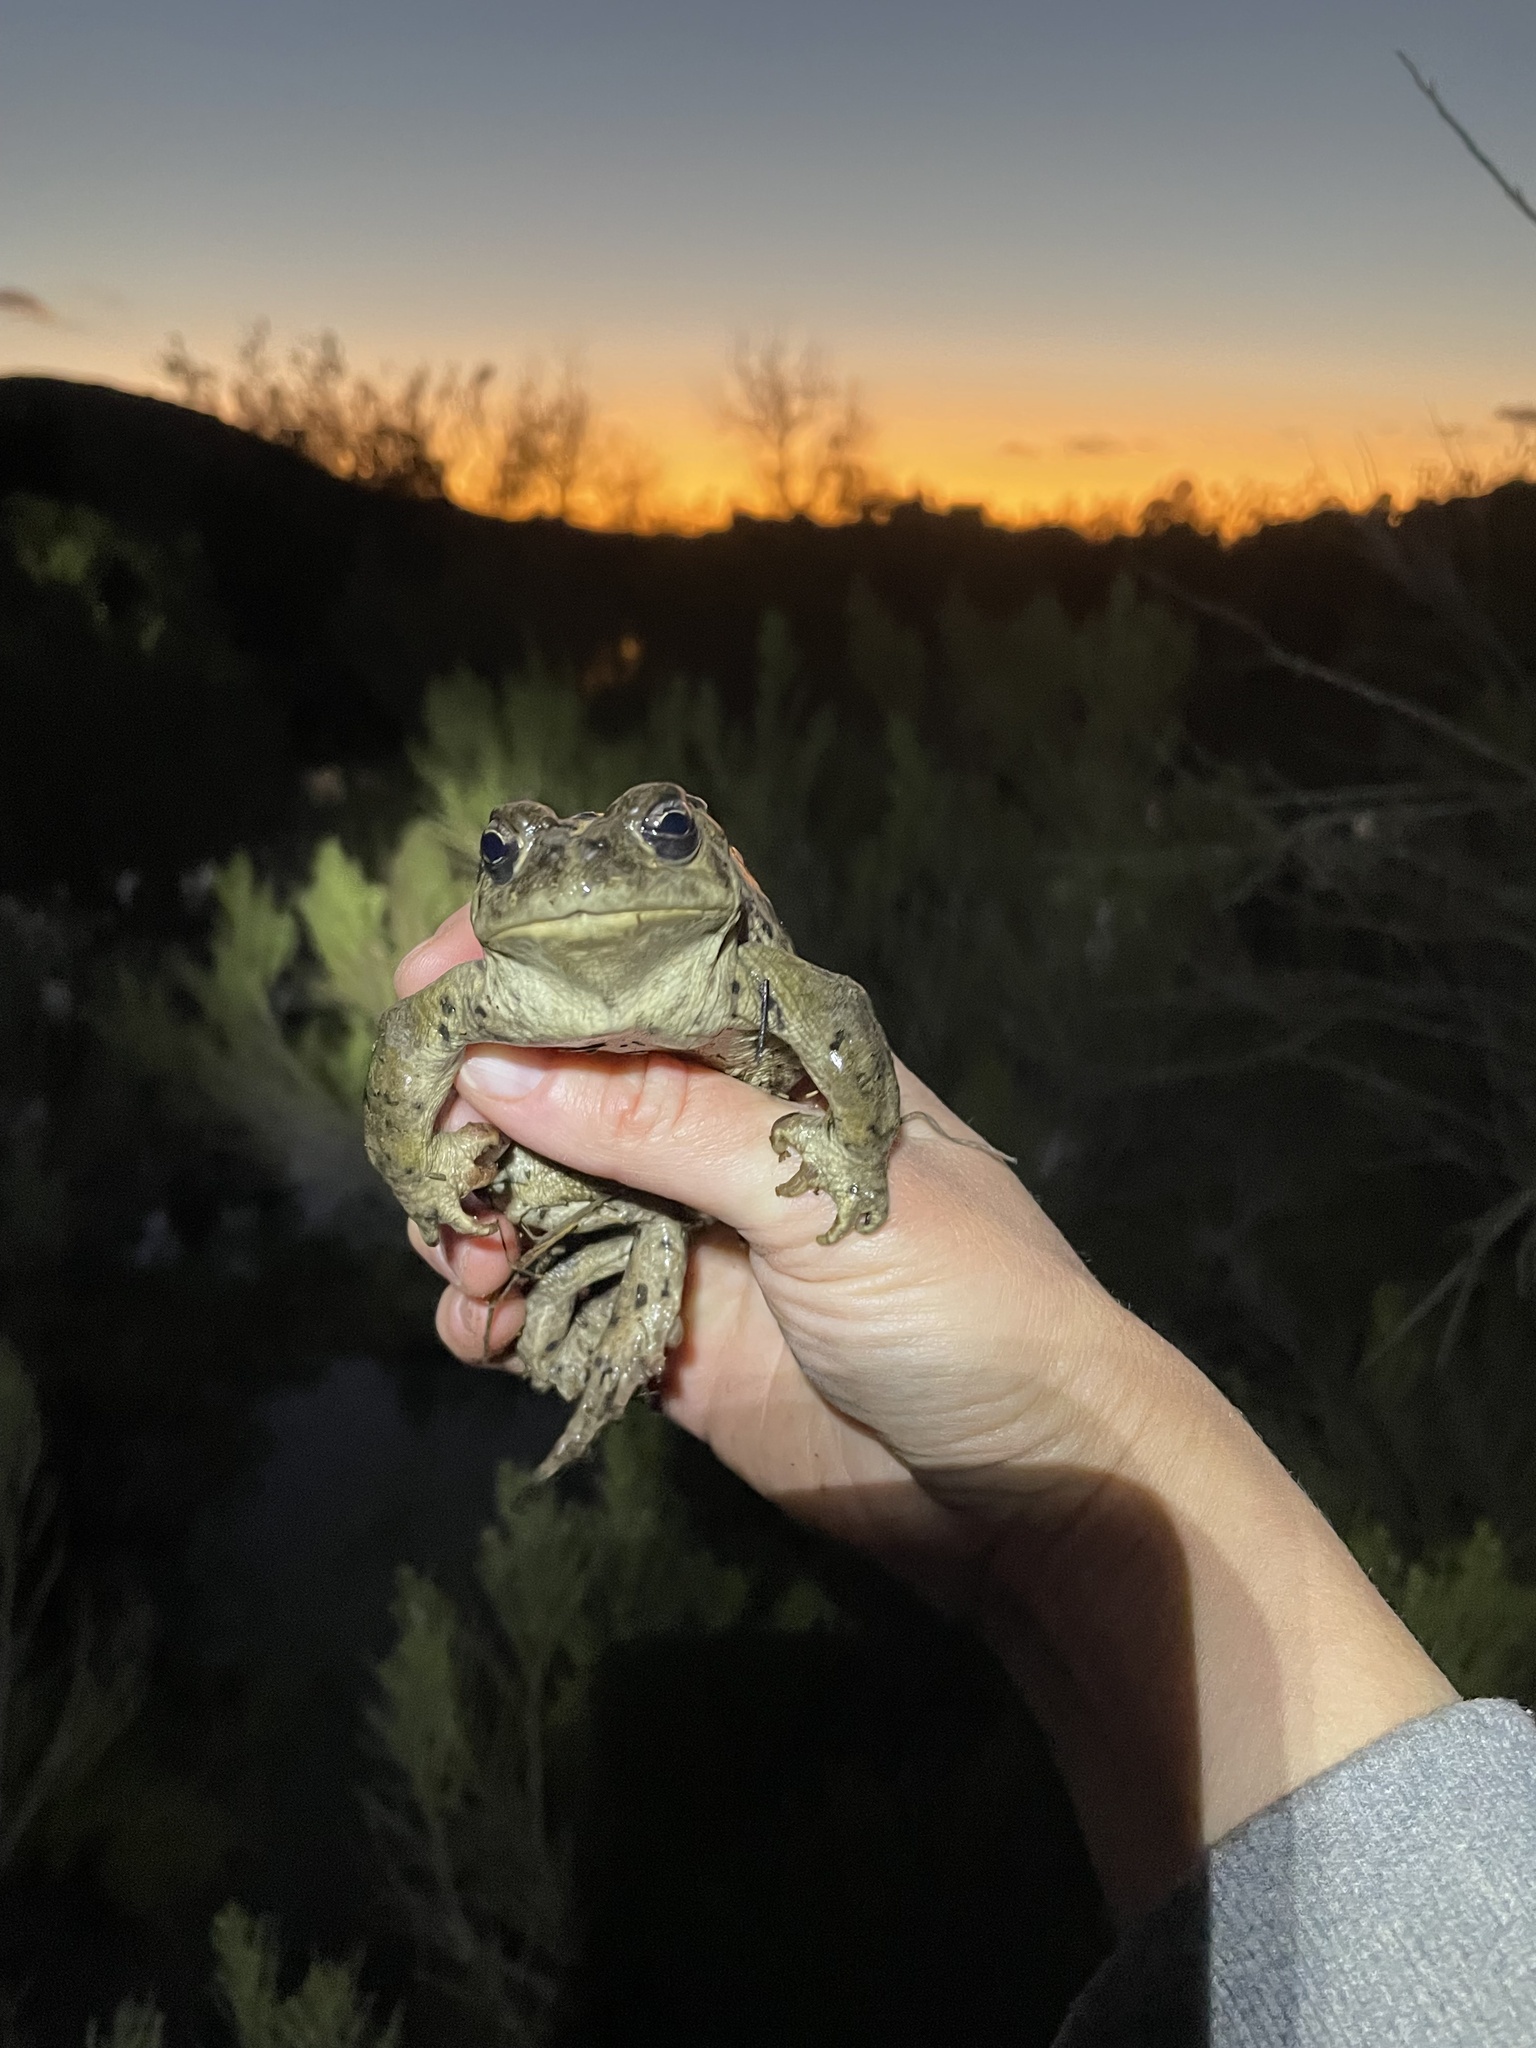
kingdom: Animalia
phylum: Chordata
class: Amphibia
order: Anura
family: Bufonidae
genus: Anaxyrus
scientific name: Anaxyrus boreas
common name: Western toad
